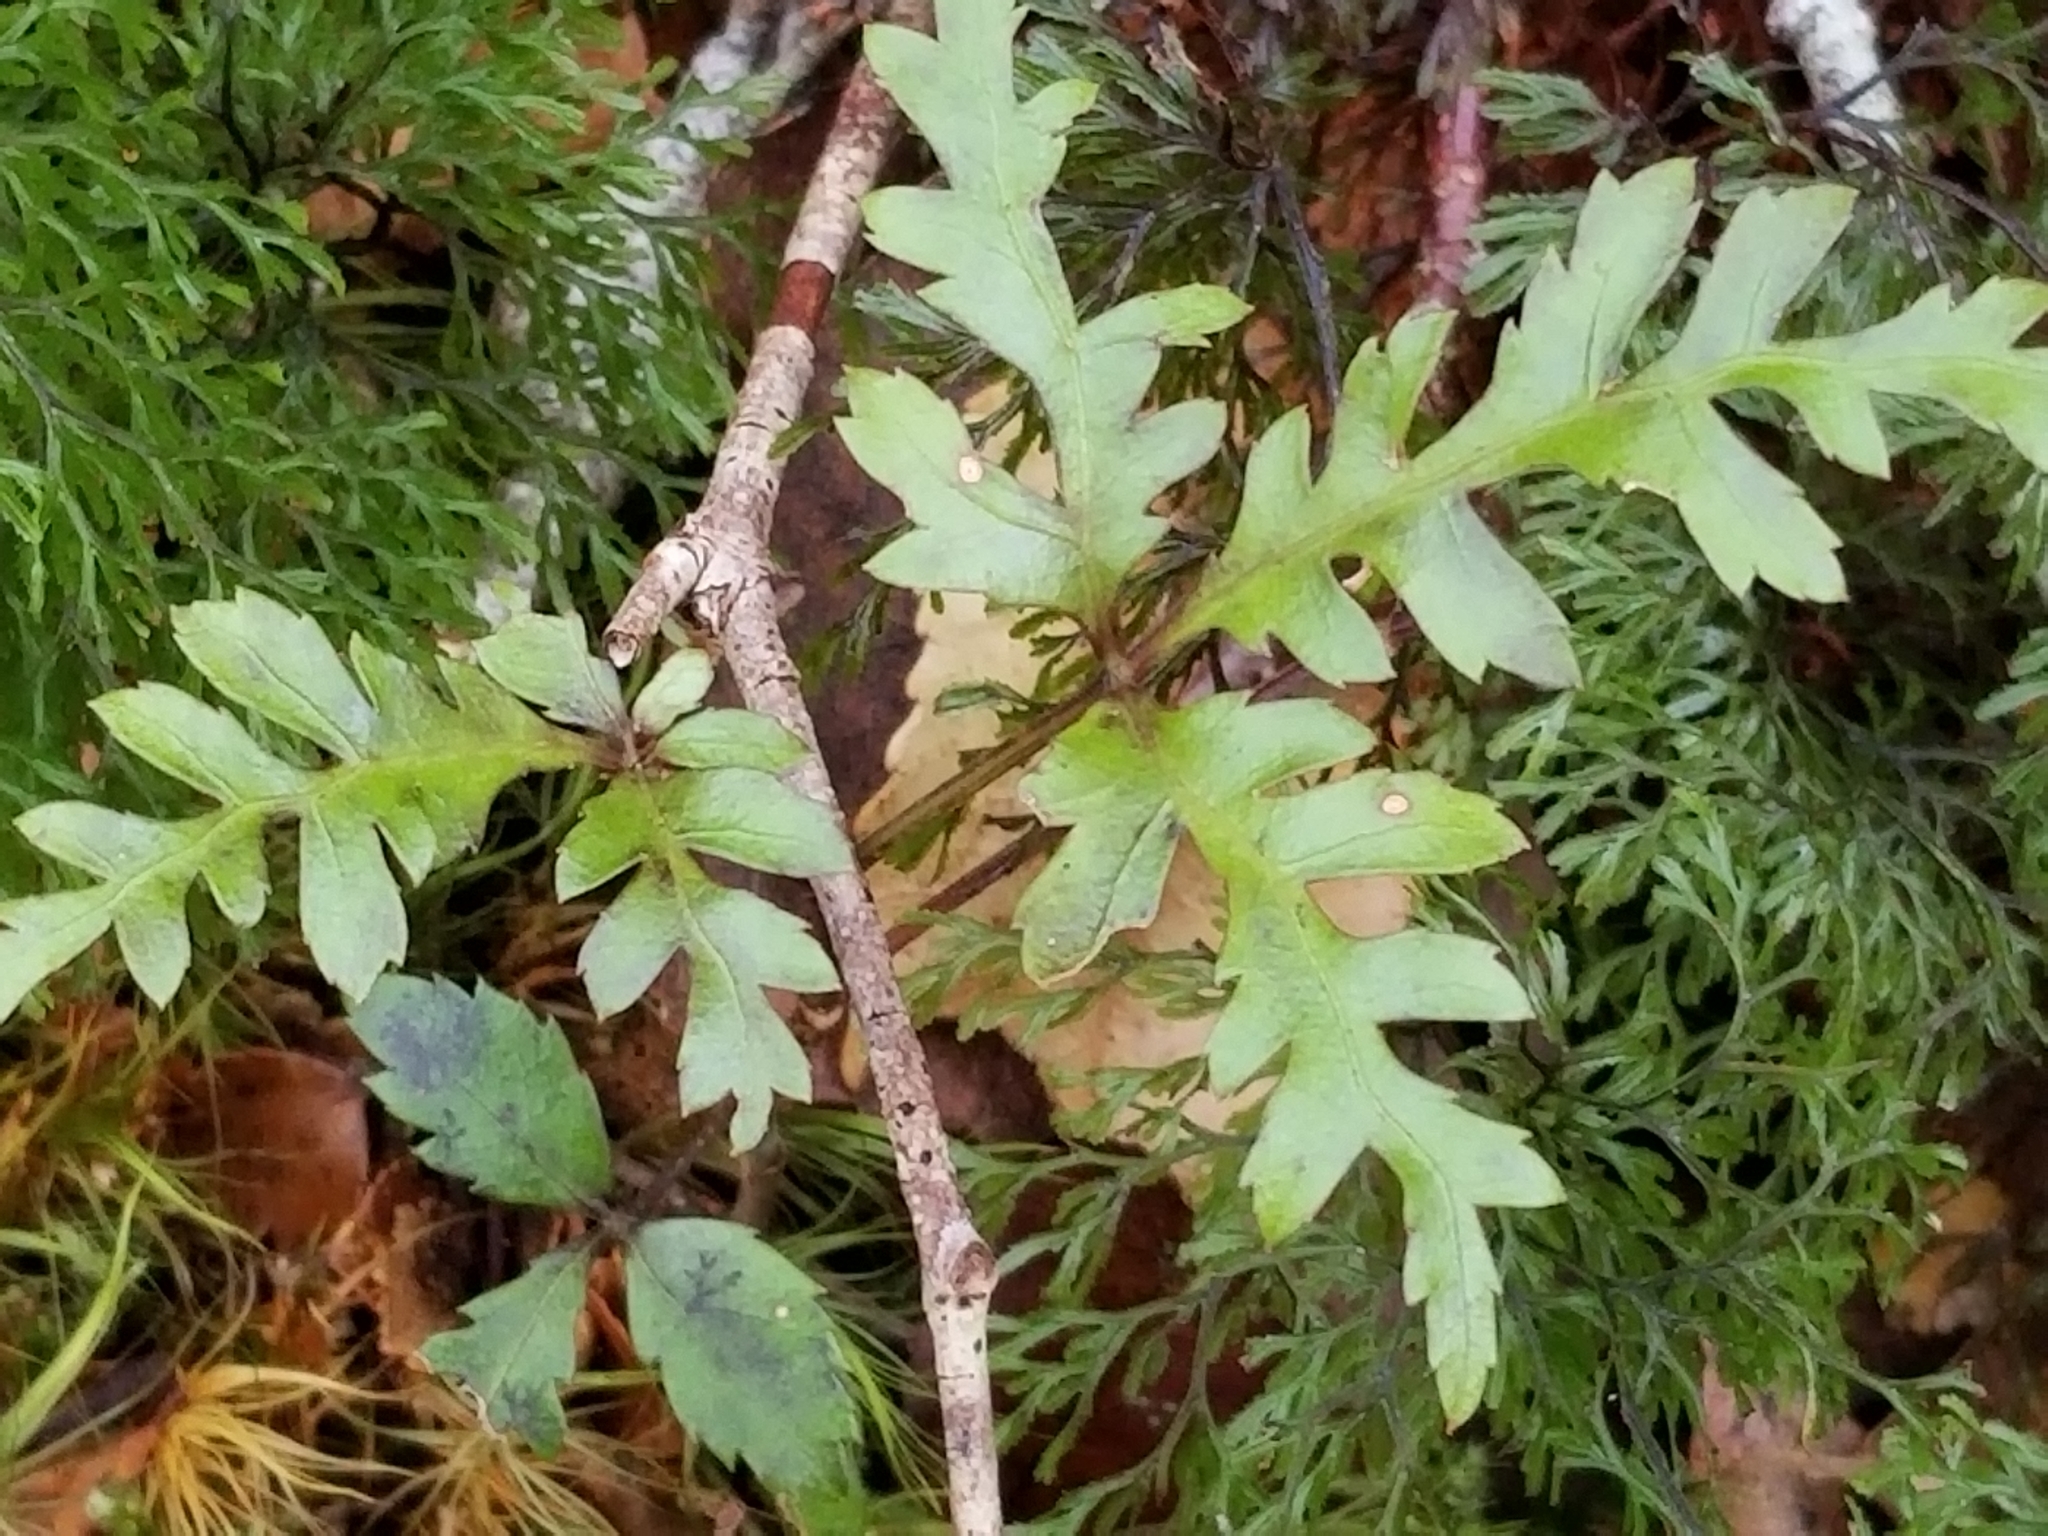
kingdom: Plantae
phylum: Tracheophyta
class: Magnoliopsida
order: Apiales
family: Araliaceae
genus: Raukaua
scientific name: Raukaua simplex
